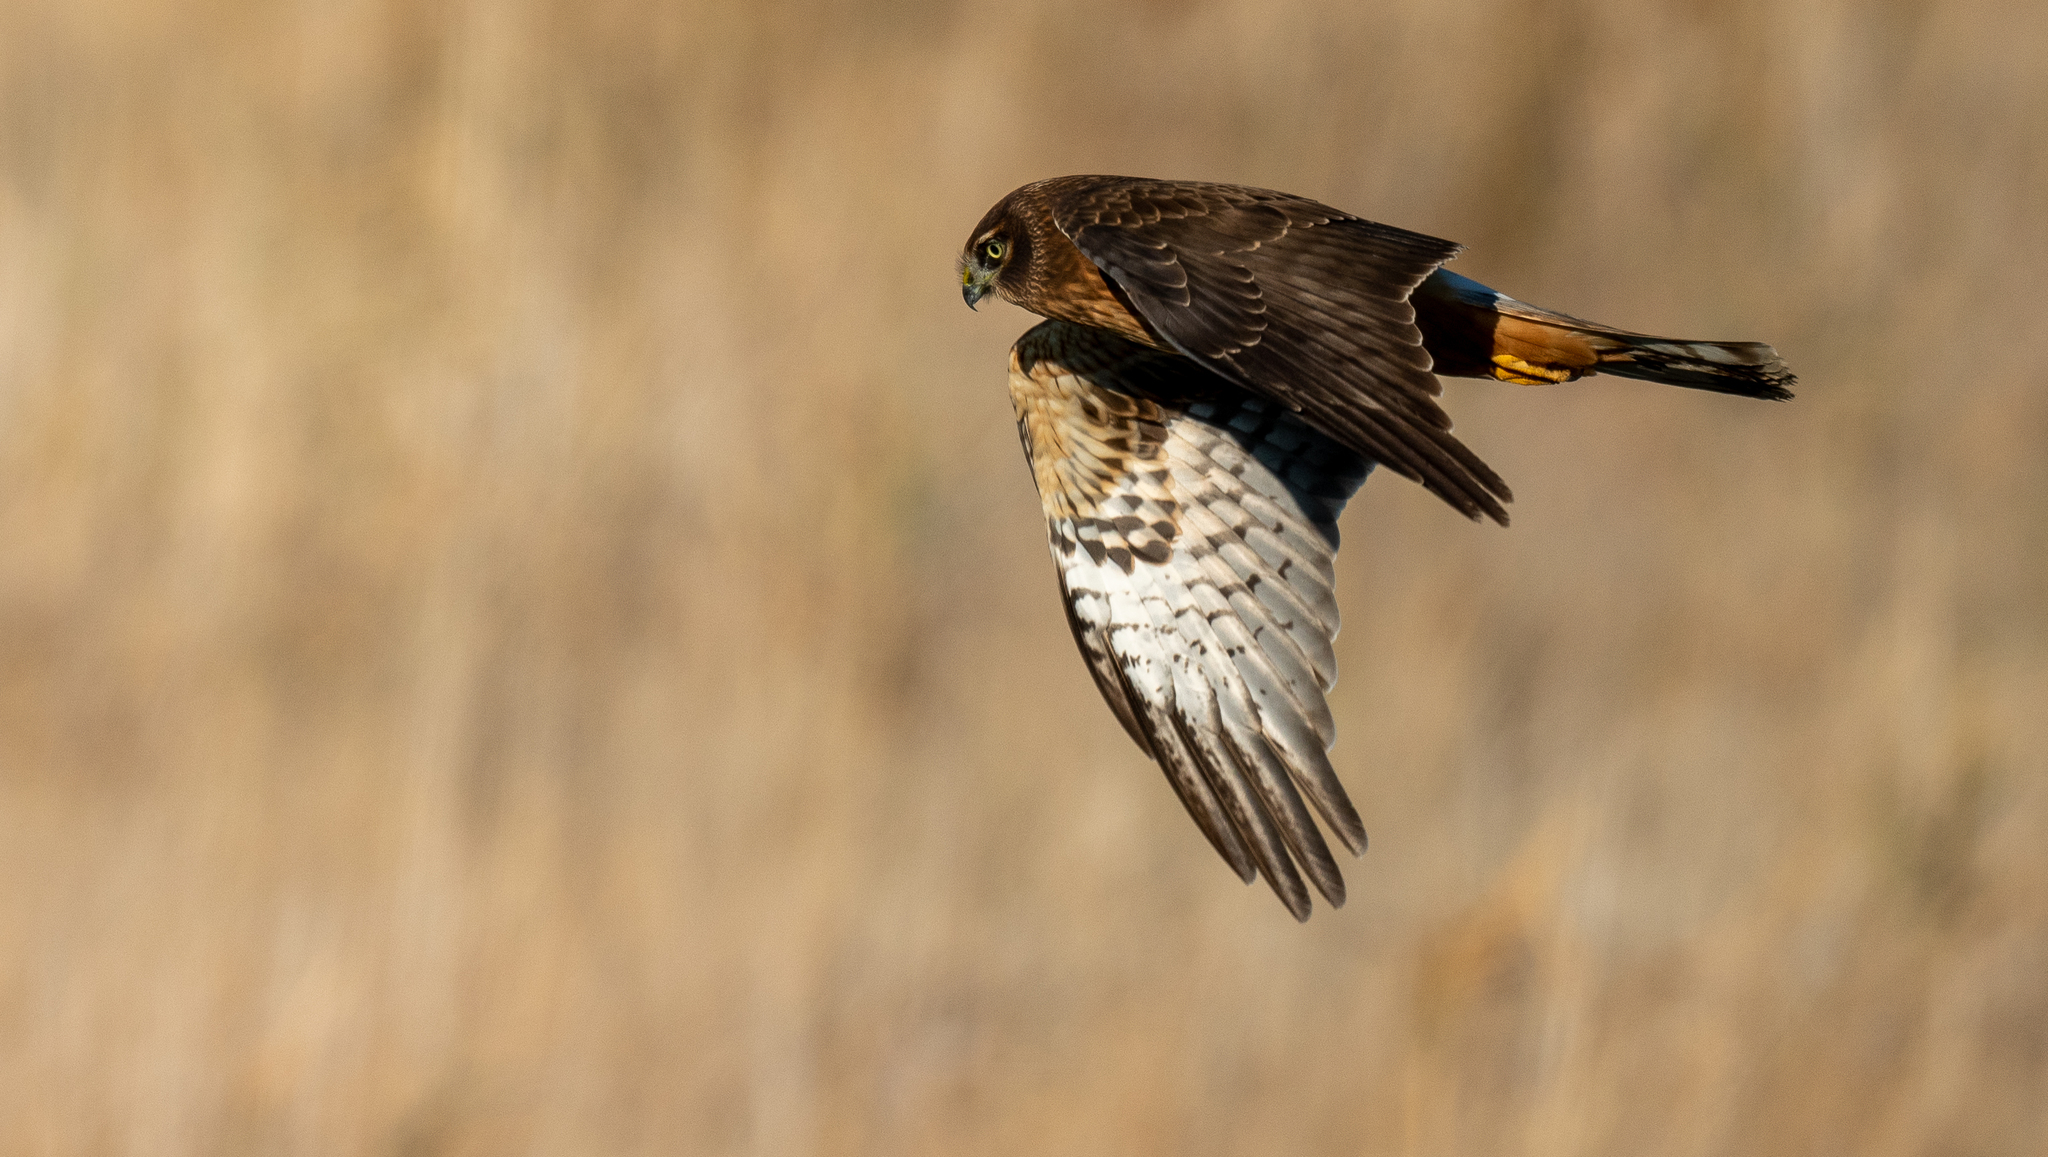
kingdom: Animalia
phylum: Chordata
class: Aves
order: Accipitriformes
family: Accipitridae
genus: Circus
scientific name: Circus cyaneus
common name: Hen harrier
